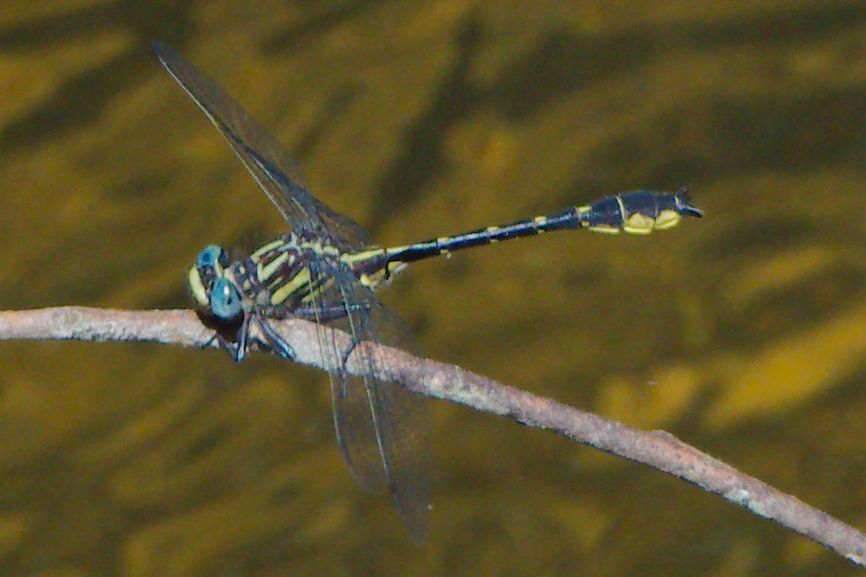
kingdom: Animalia
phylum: Arthropoda
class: Insecta
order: Odonata
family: Gomphidae
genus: Hylogomphus
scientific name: Hylogomphus geminatus
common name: Twin-striped clubtail
